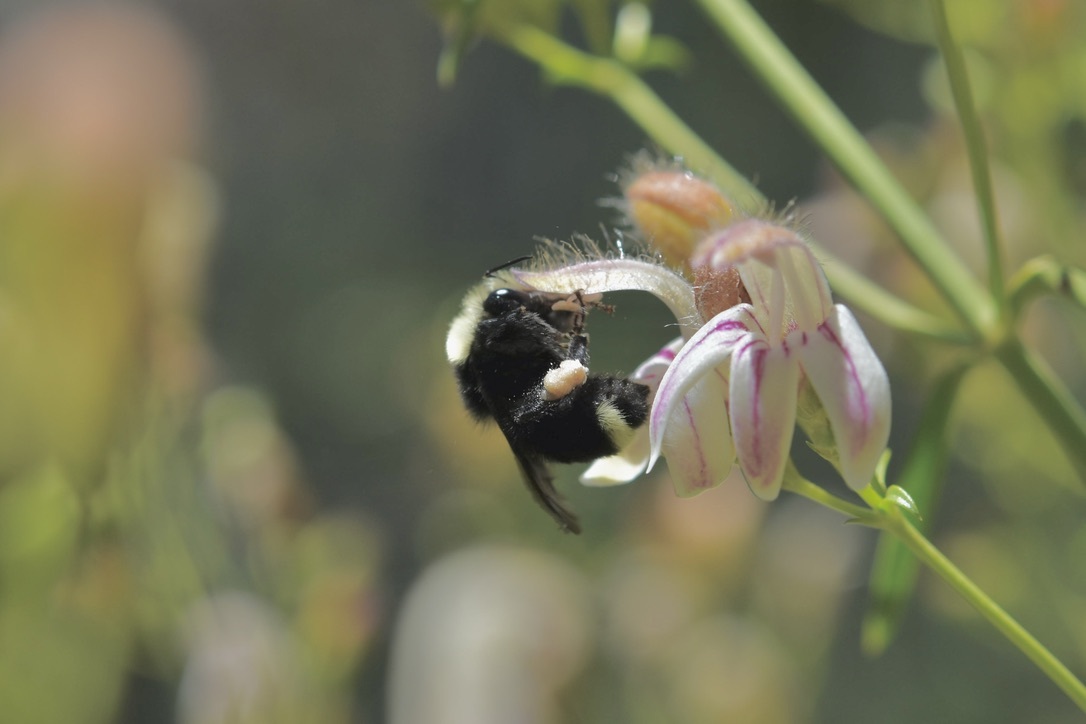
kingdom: Animalia
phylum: Arthropoda
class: Insecta
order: Hymenoptera
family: Apidae
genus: Bombus
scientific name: Bombus vosnesenskii
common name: Vosnesensky bumble bee
